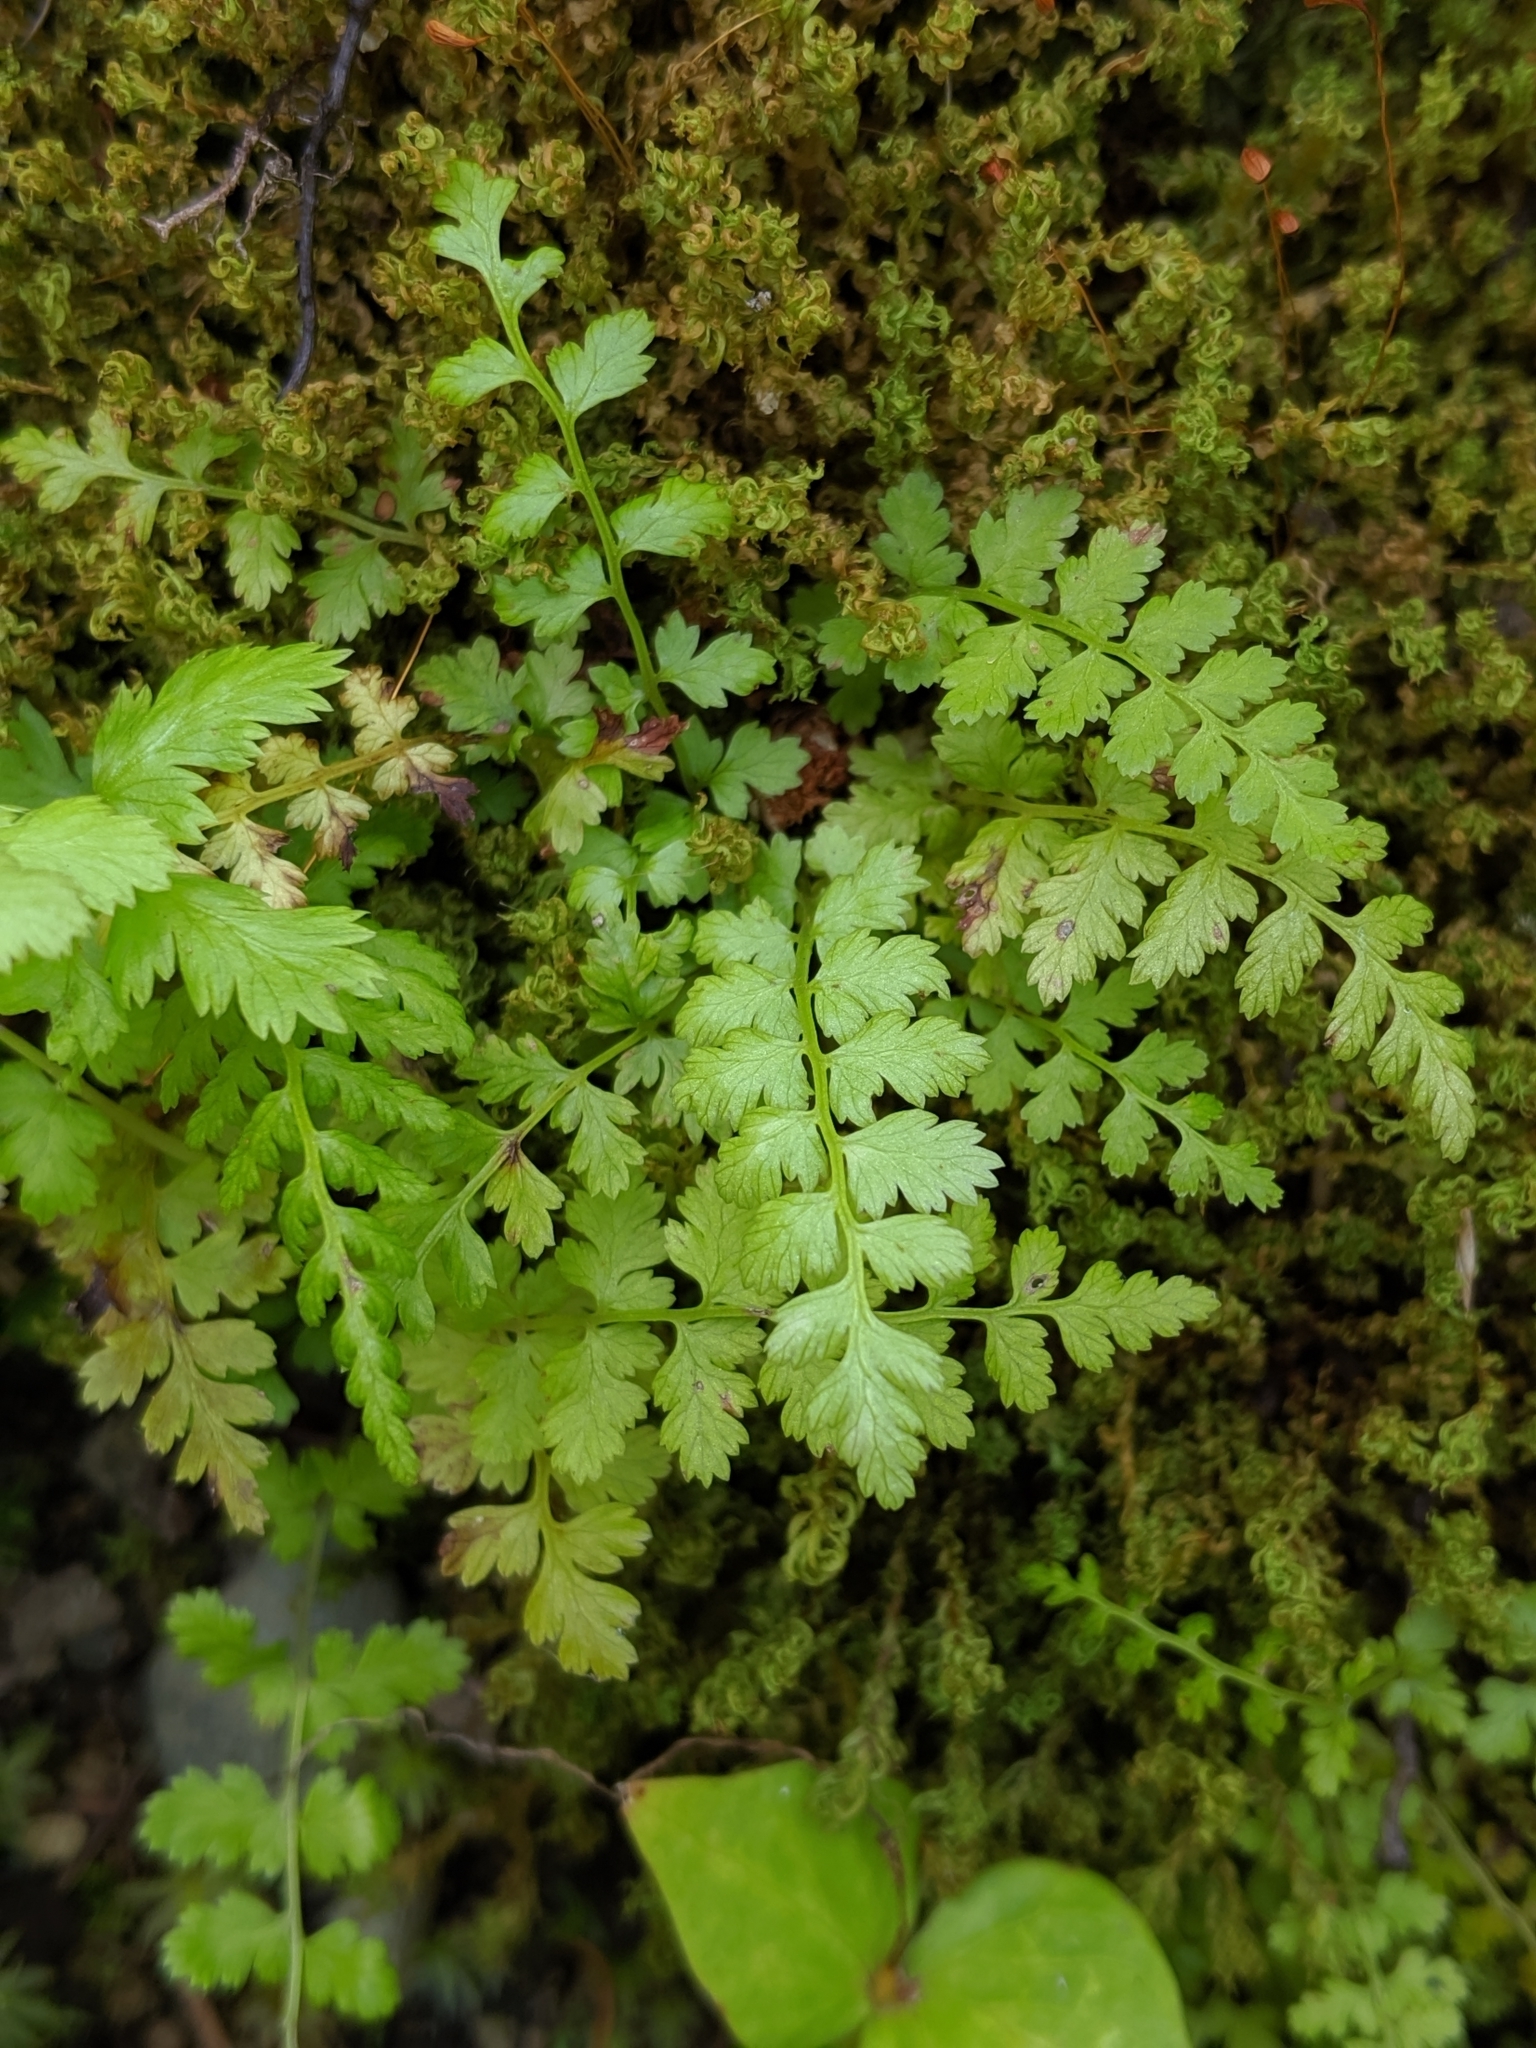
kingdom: Plantae
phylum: Tracheophyta
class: Polypodiopsida
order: Polypodiales
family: Athyriaceae
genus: Athyrium
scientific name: Athyrium filix-femina
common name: Lady fern
